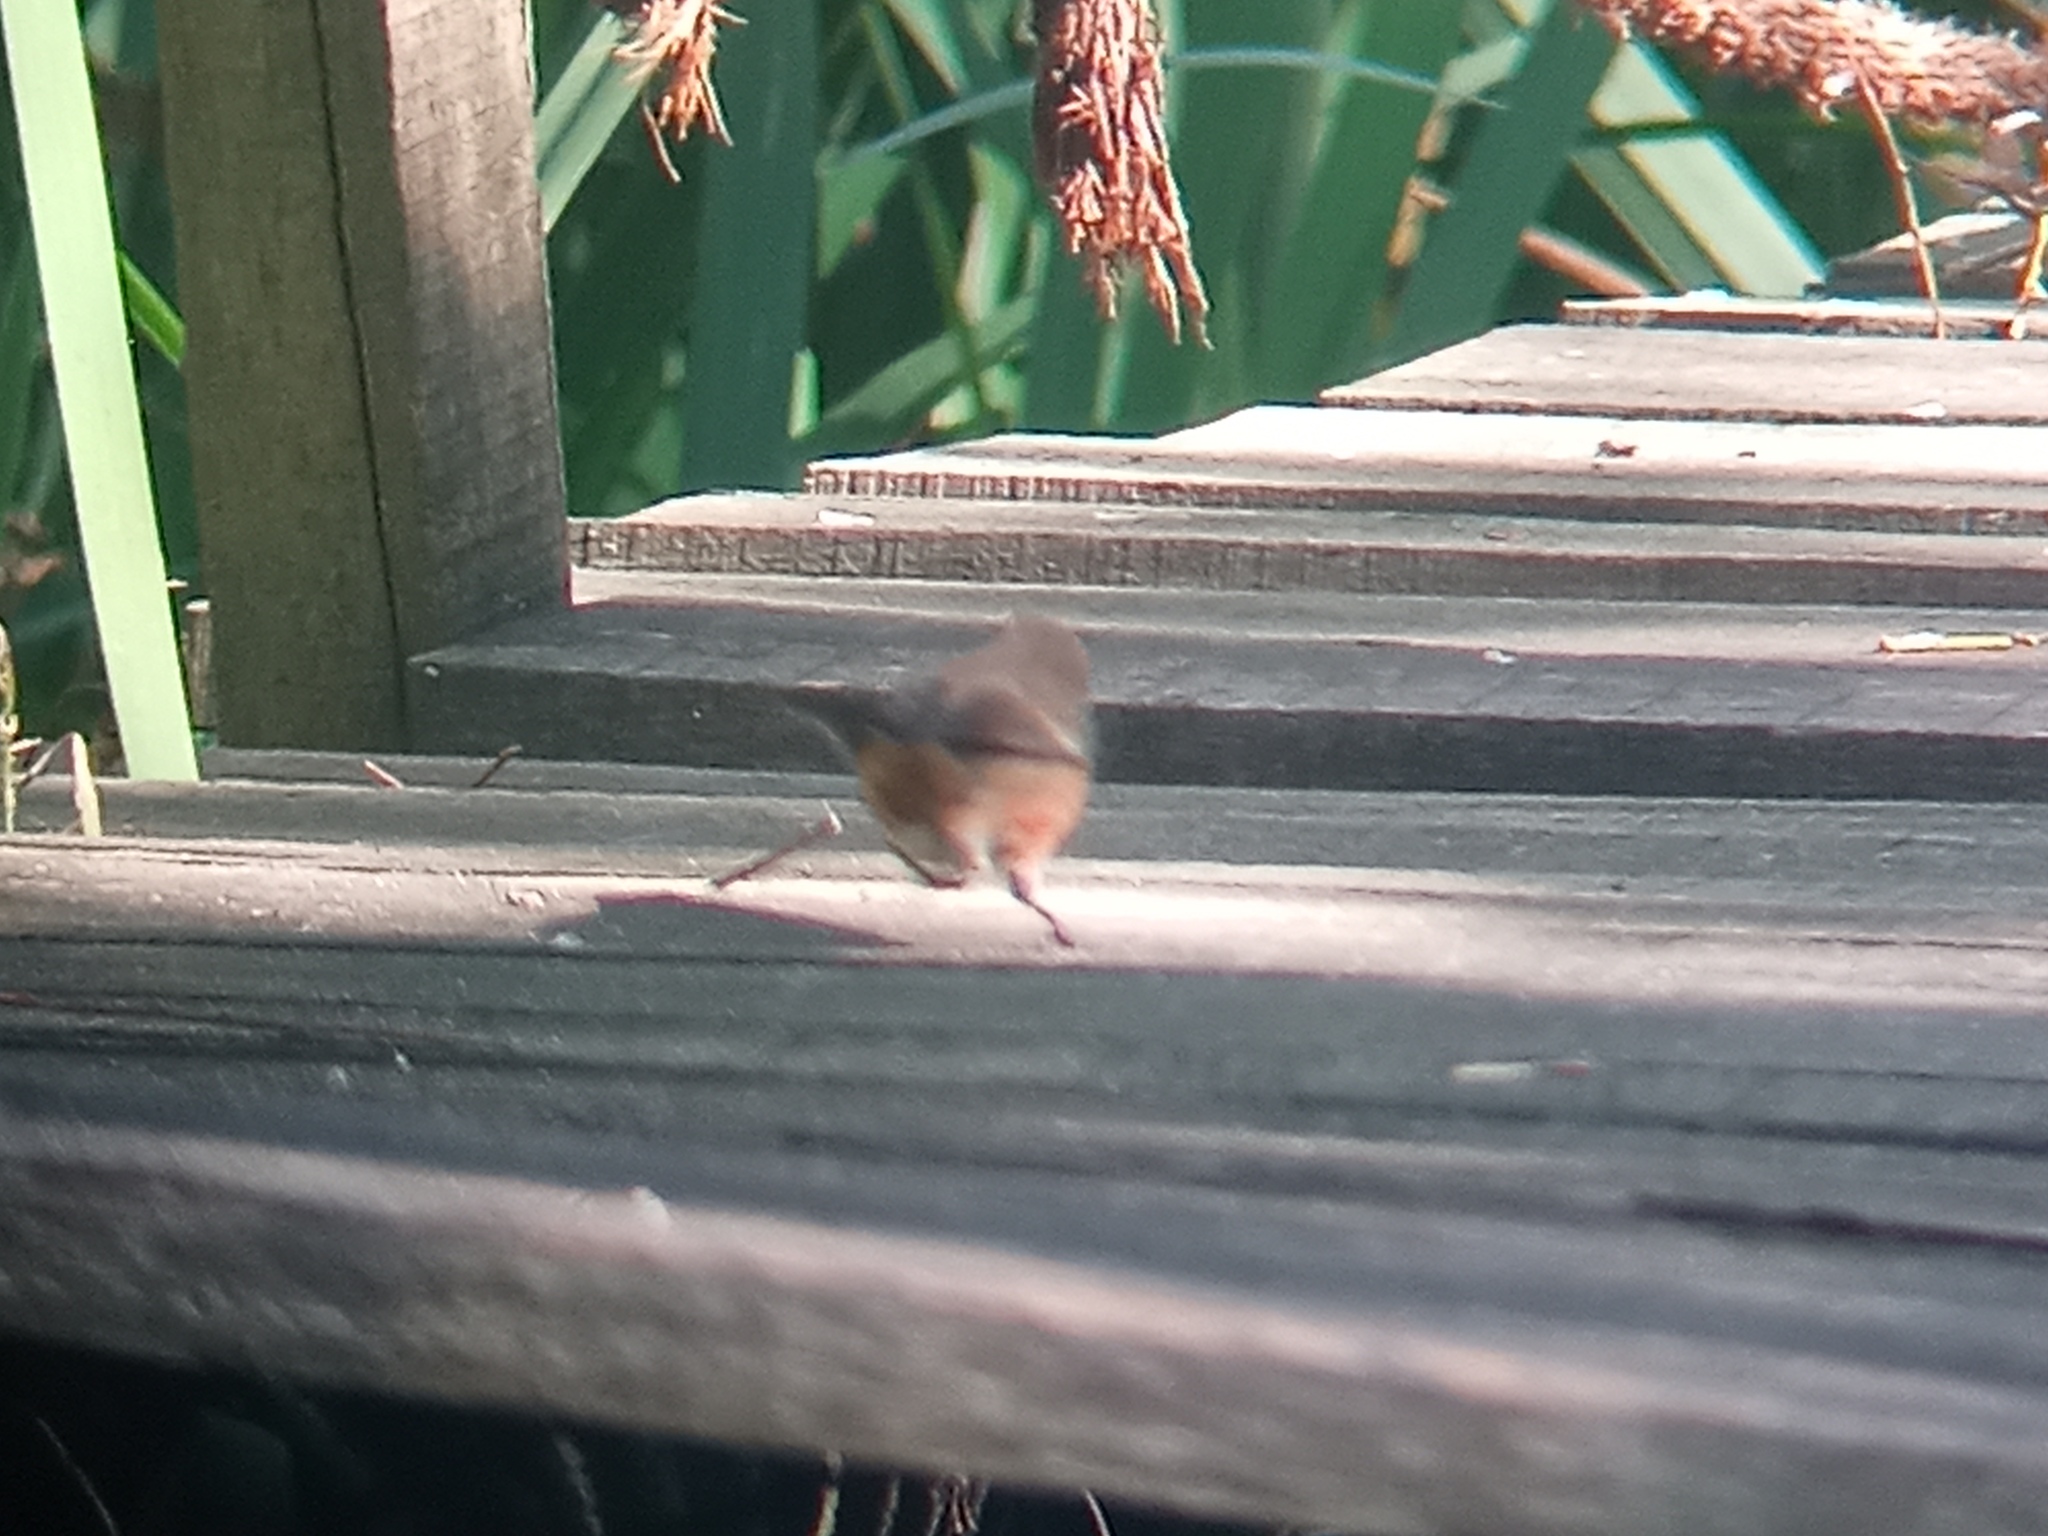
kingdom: Animalia
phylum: Chordata
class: Aves
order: Passeriformes
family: Thraupidae
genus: Poospiza
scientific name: Poospiza nigrorufa
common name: Black-and-rufous warbling finch
